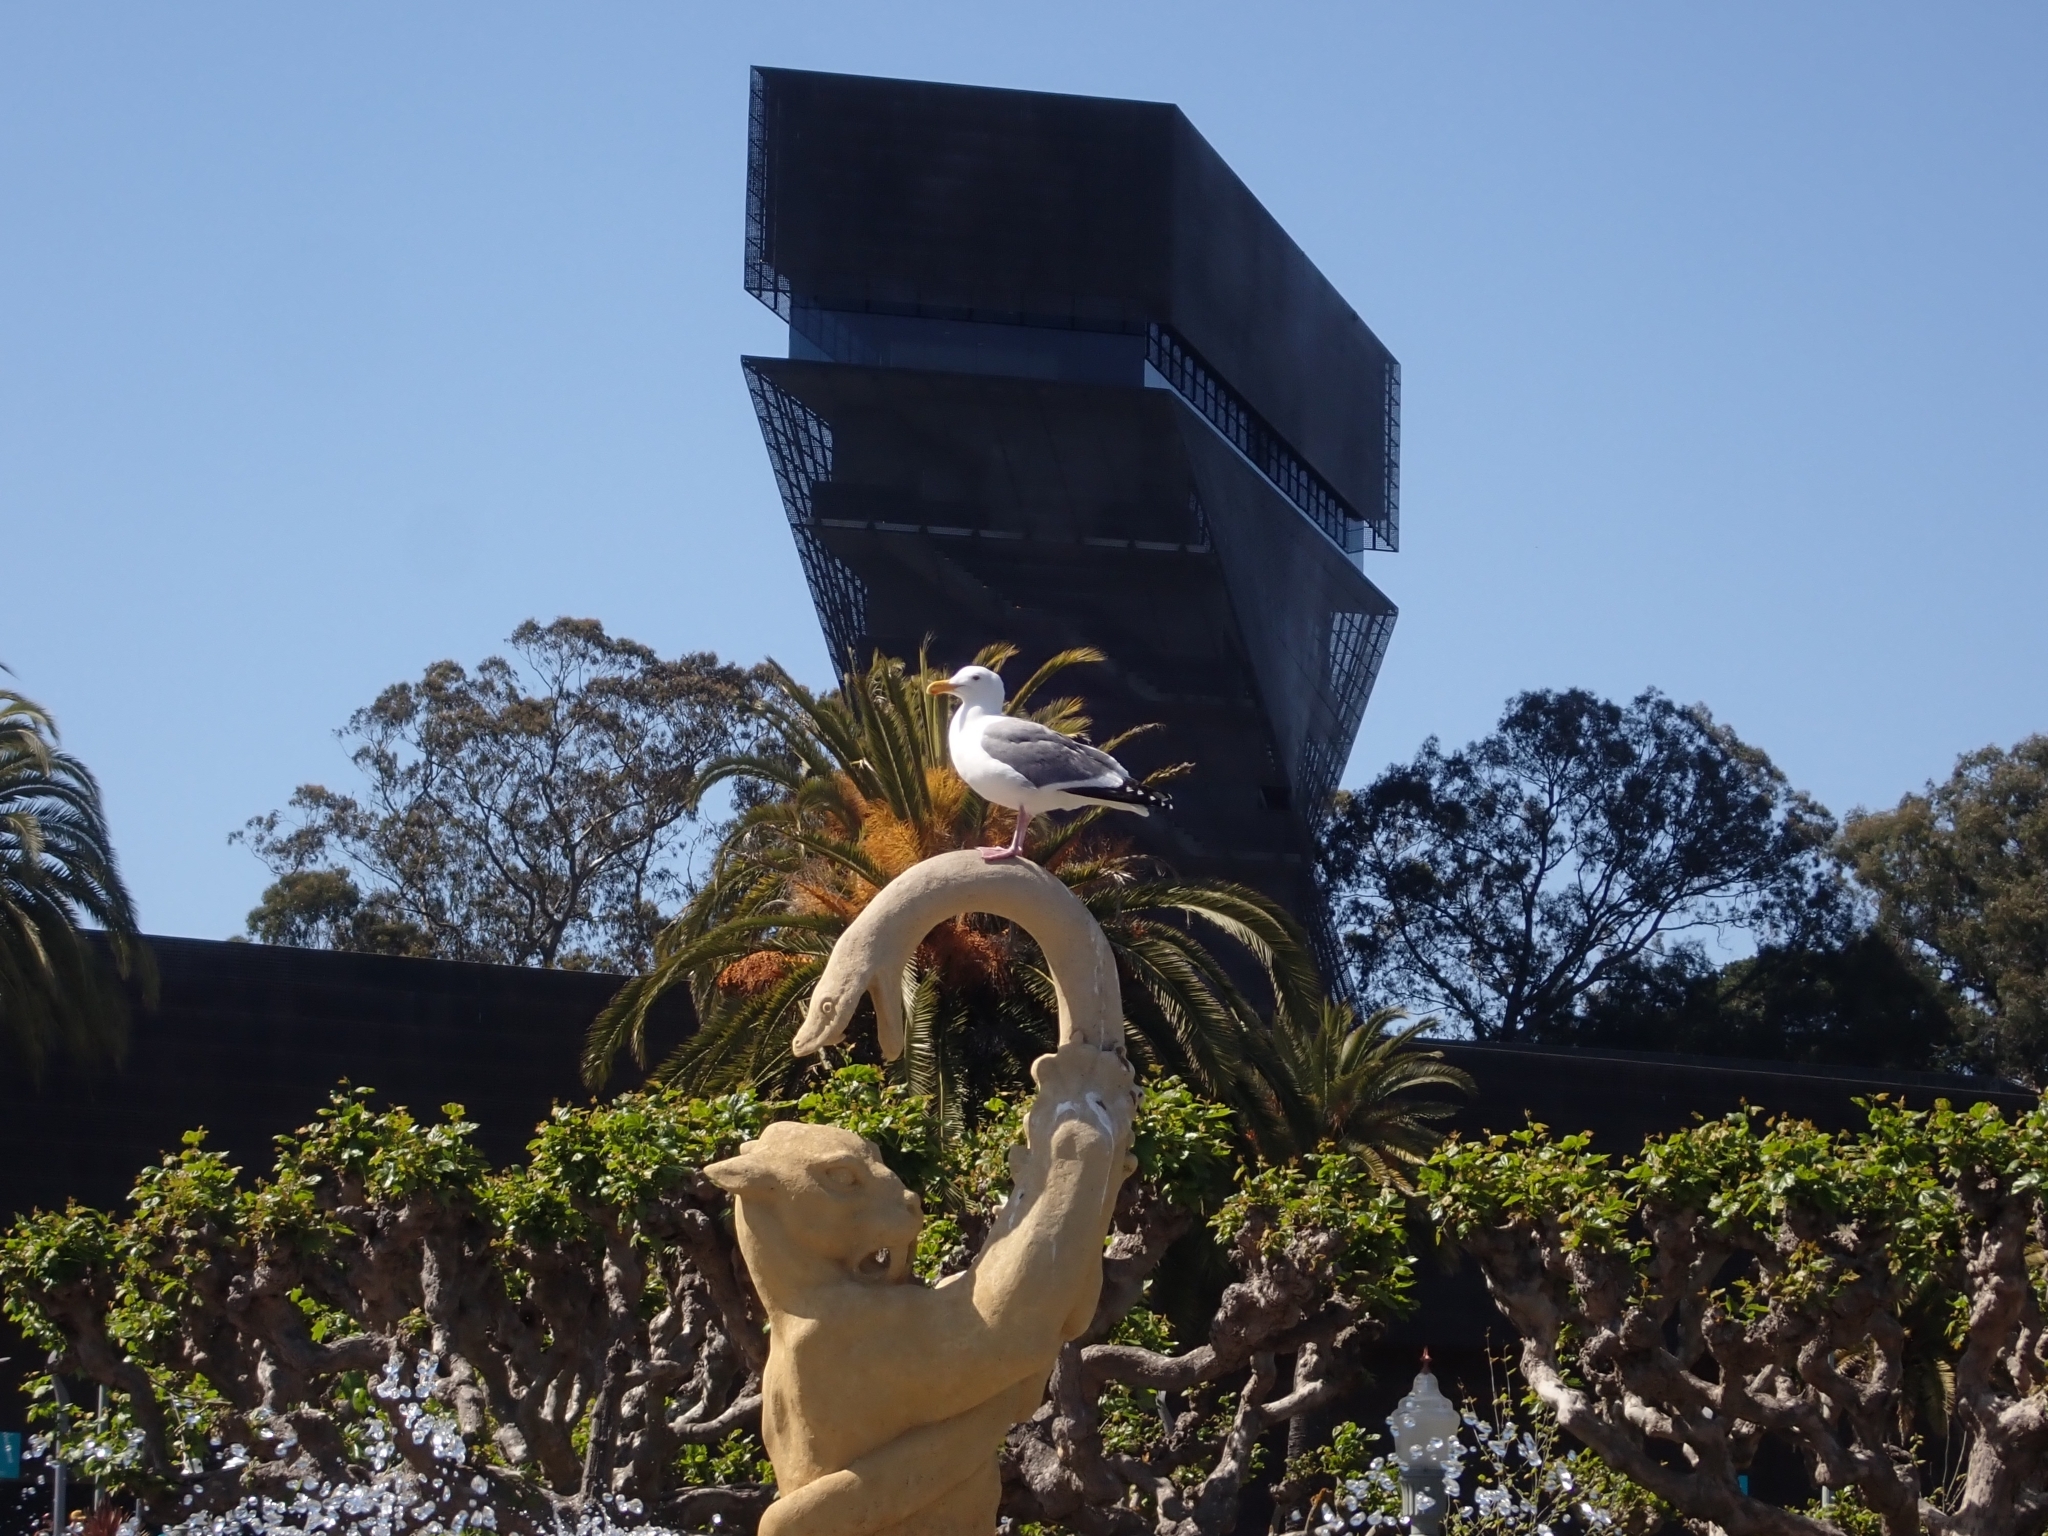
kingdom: Animalia
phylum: Chordata
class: Aves
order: Charadriiformes
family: Laridae
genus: Larus
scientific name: Larus occidentalis
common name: Western gull
